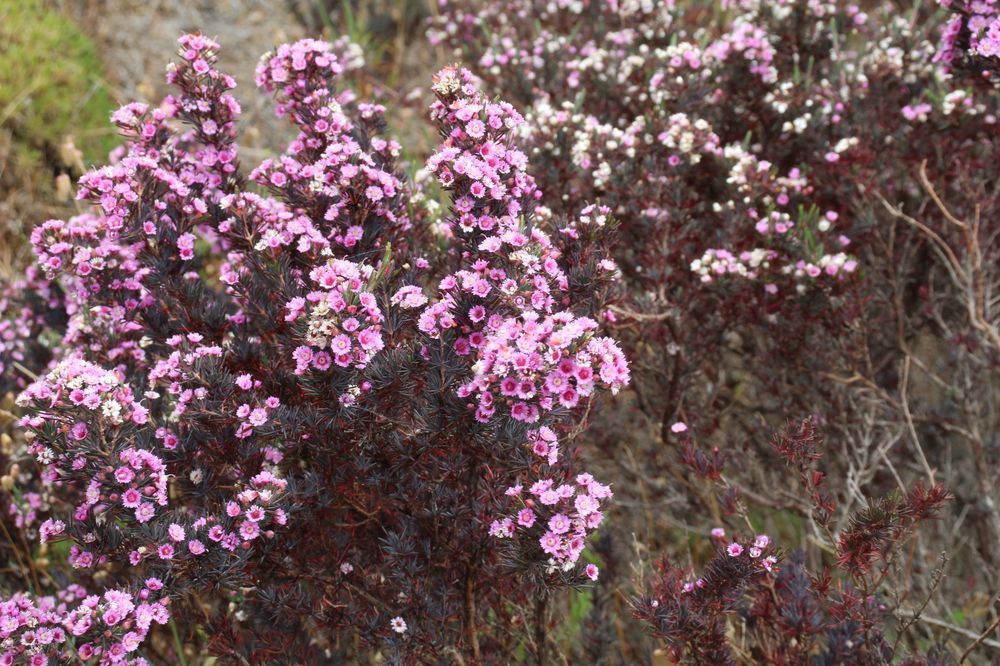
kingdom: Plantae
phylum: Tracheophyta
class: Magnoliopsida
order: Myrtales
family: Myrtaceae
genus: Verticordia
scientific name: Verticordia plumosa
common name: Plume feather-flower
